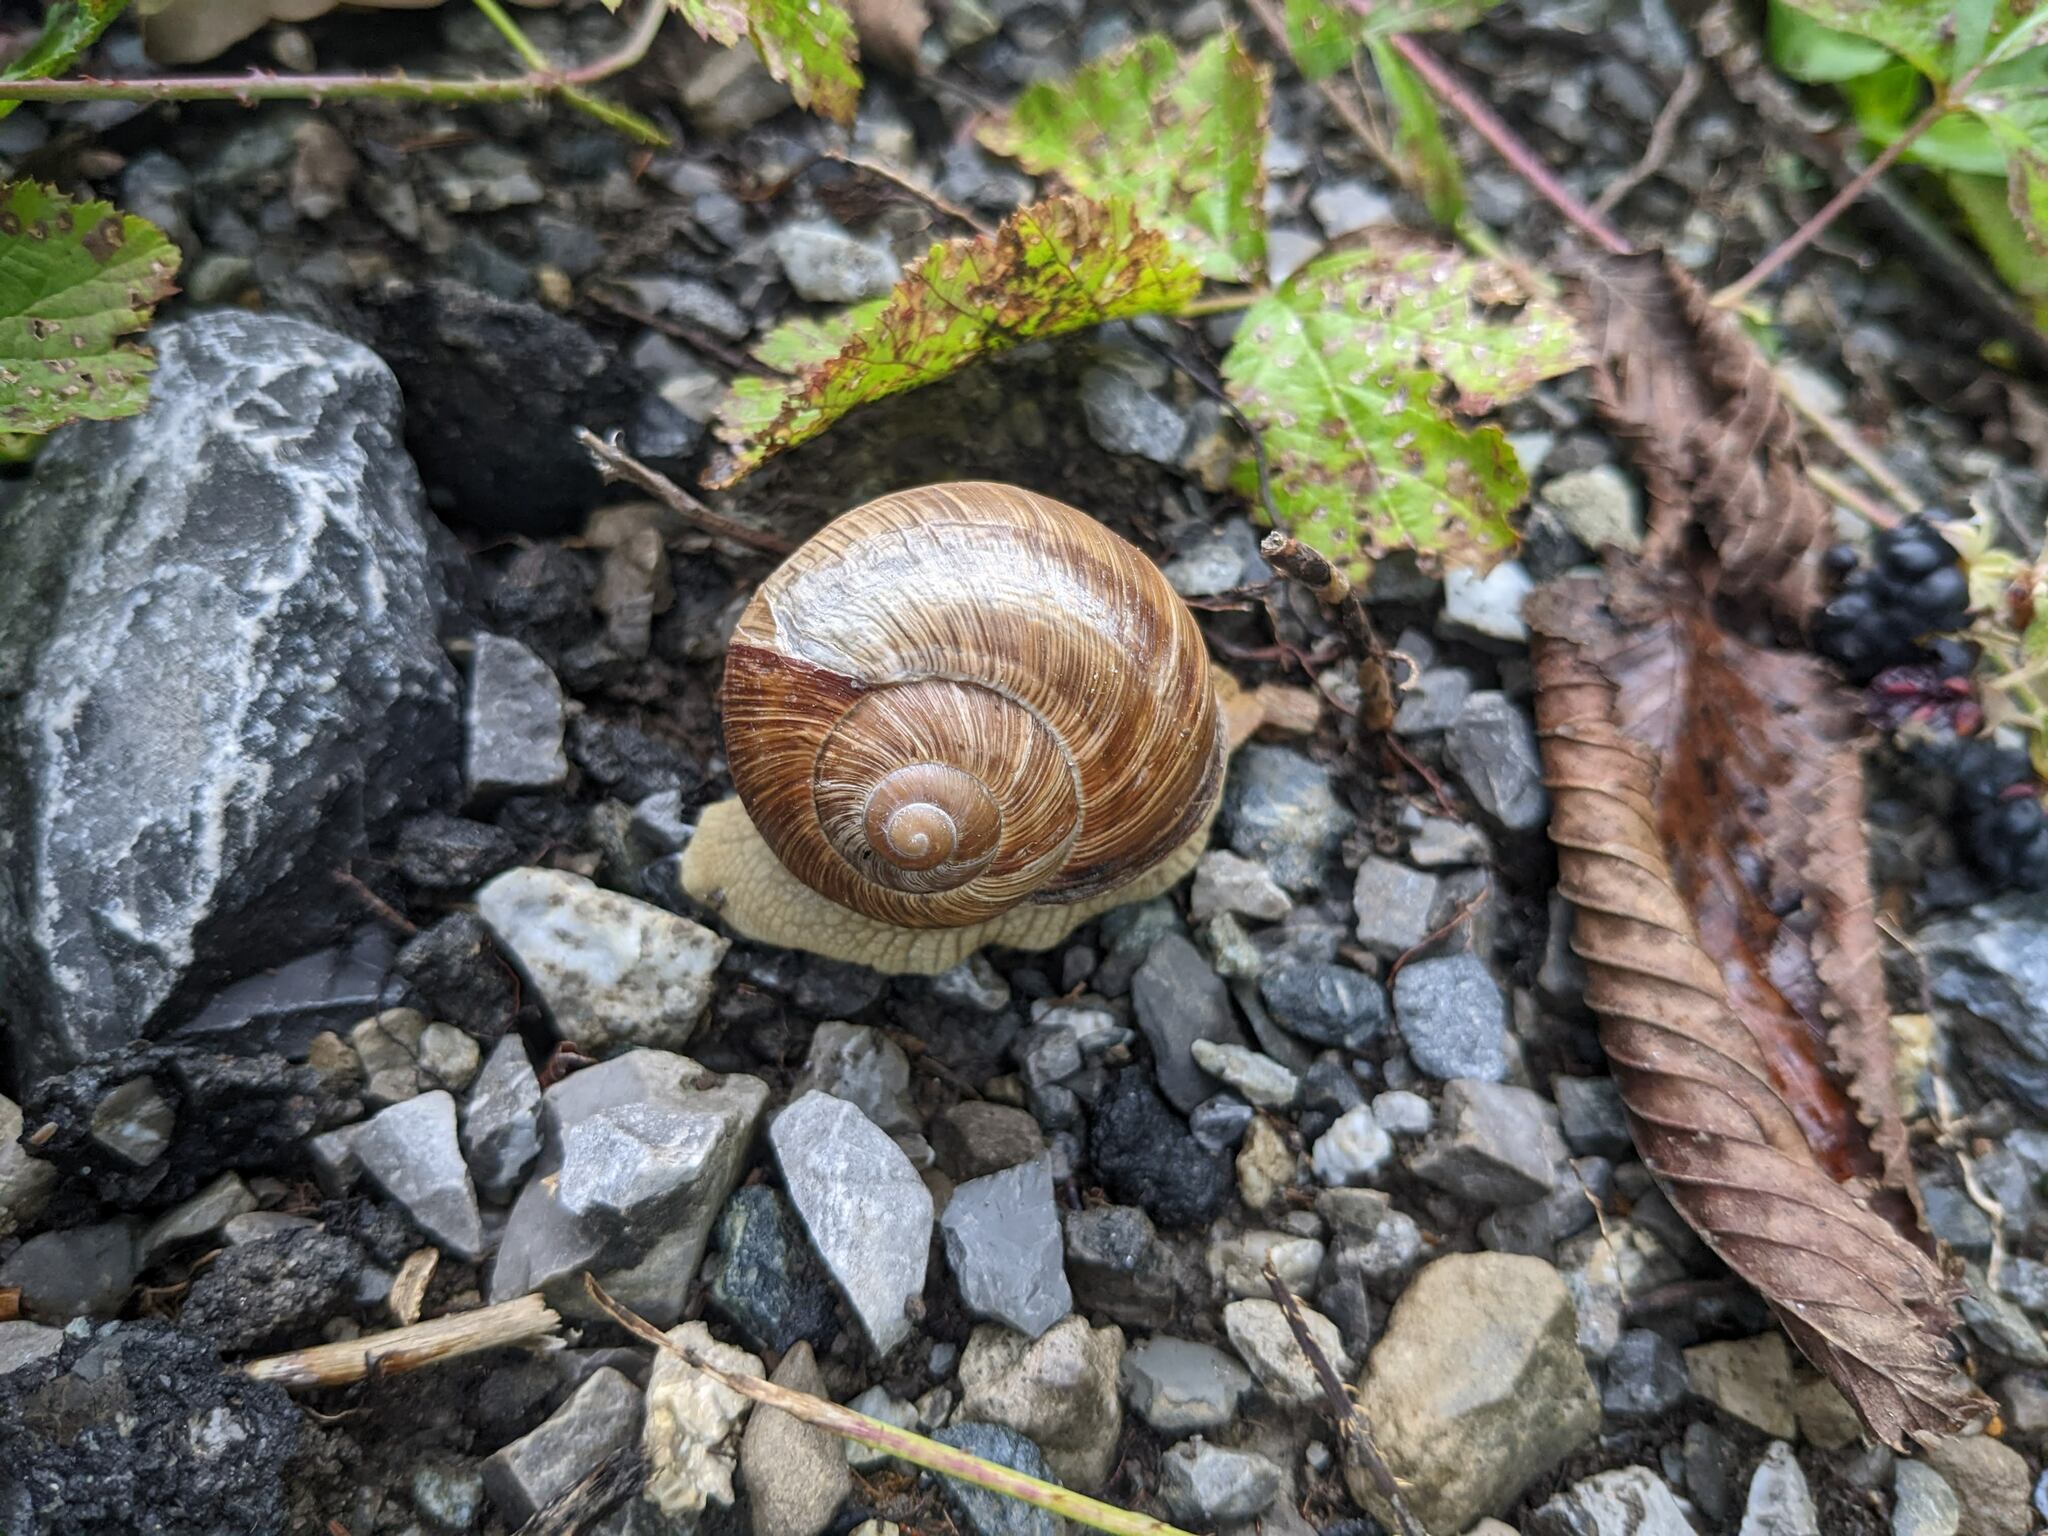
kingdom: Animalia
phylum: Mollusca
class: Gastropoda
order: Stylommatophora
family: Helicidae
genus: Helix
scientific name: Helix pomatia
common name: Roman snail
